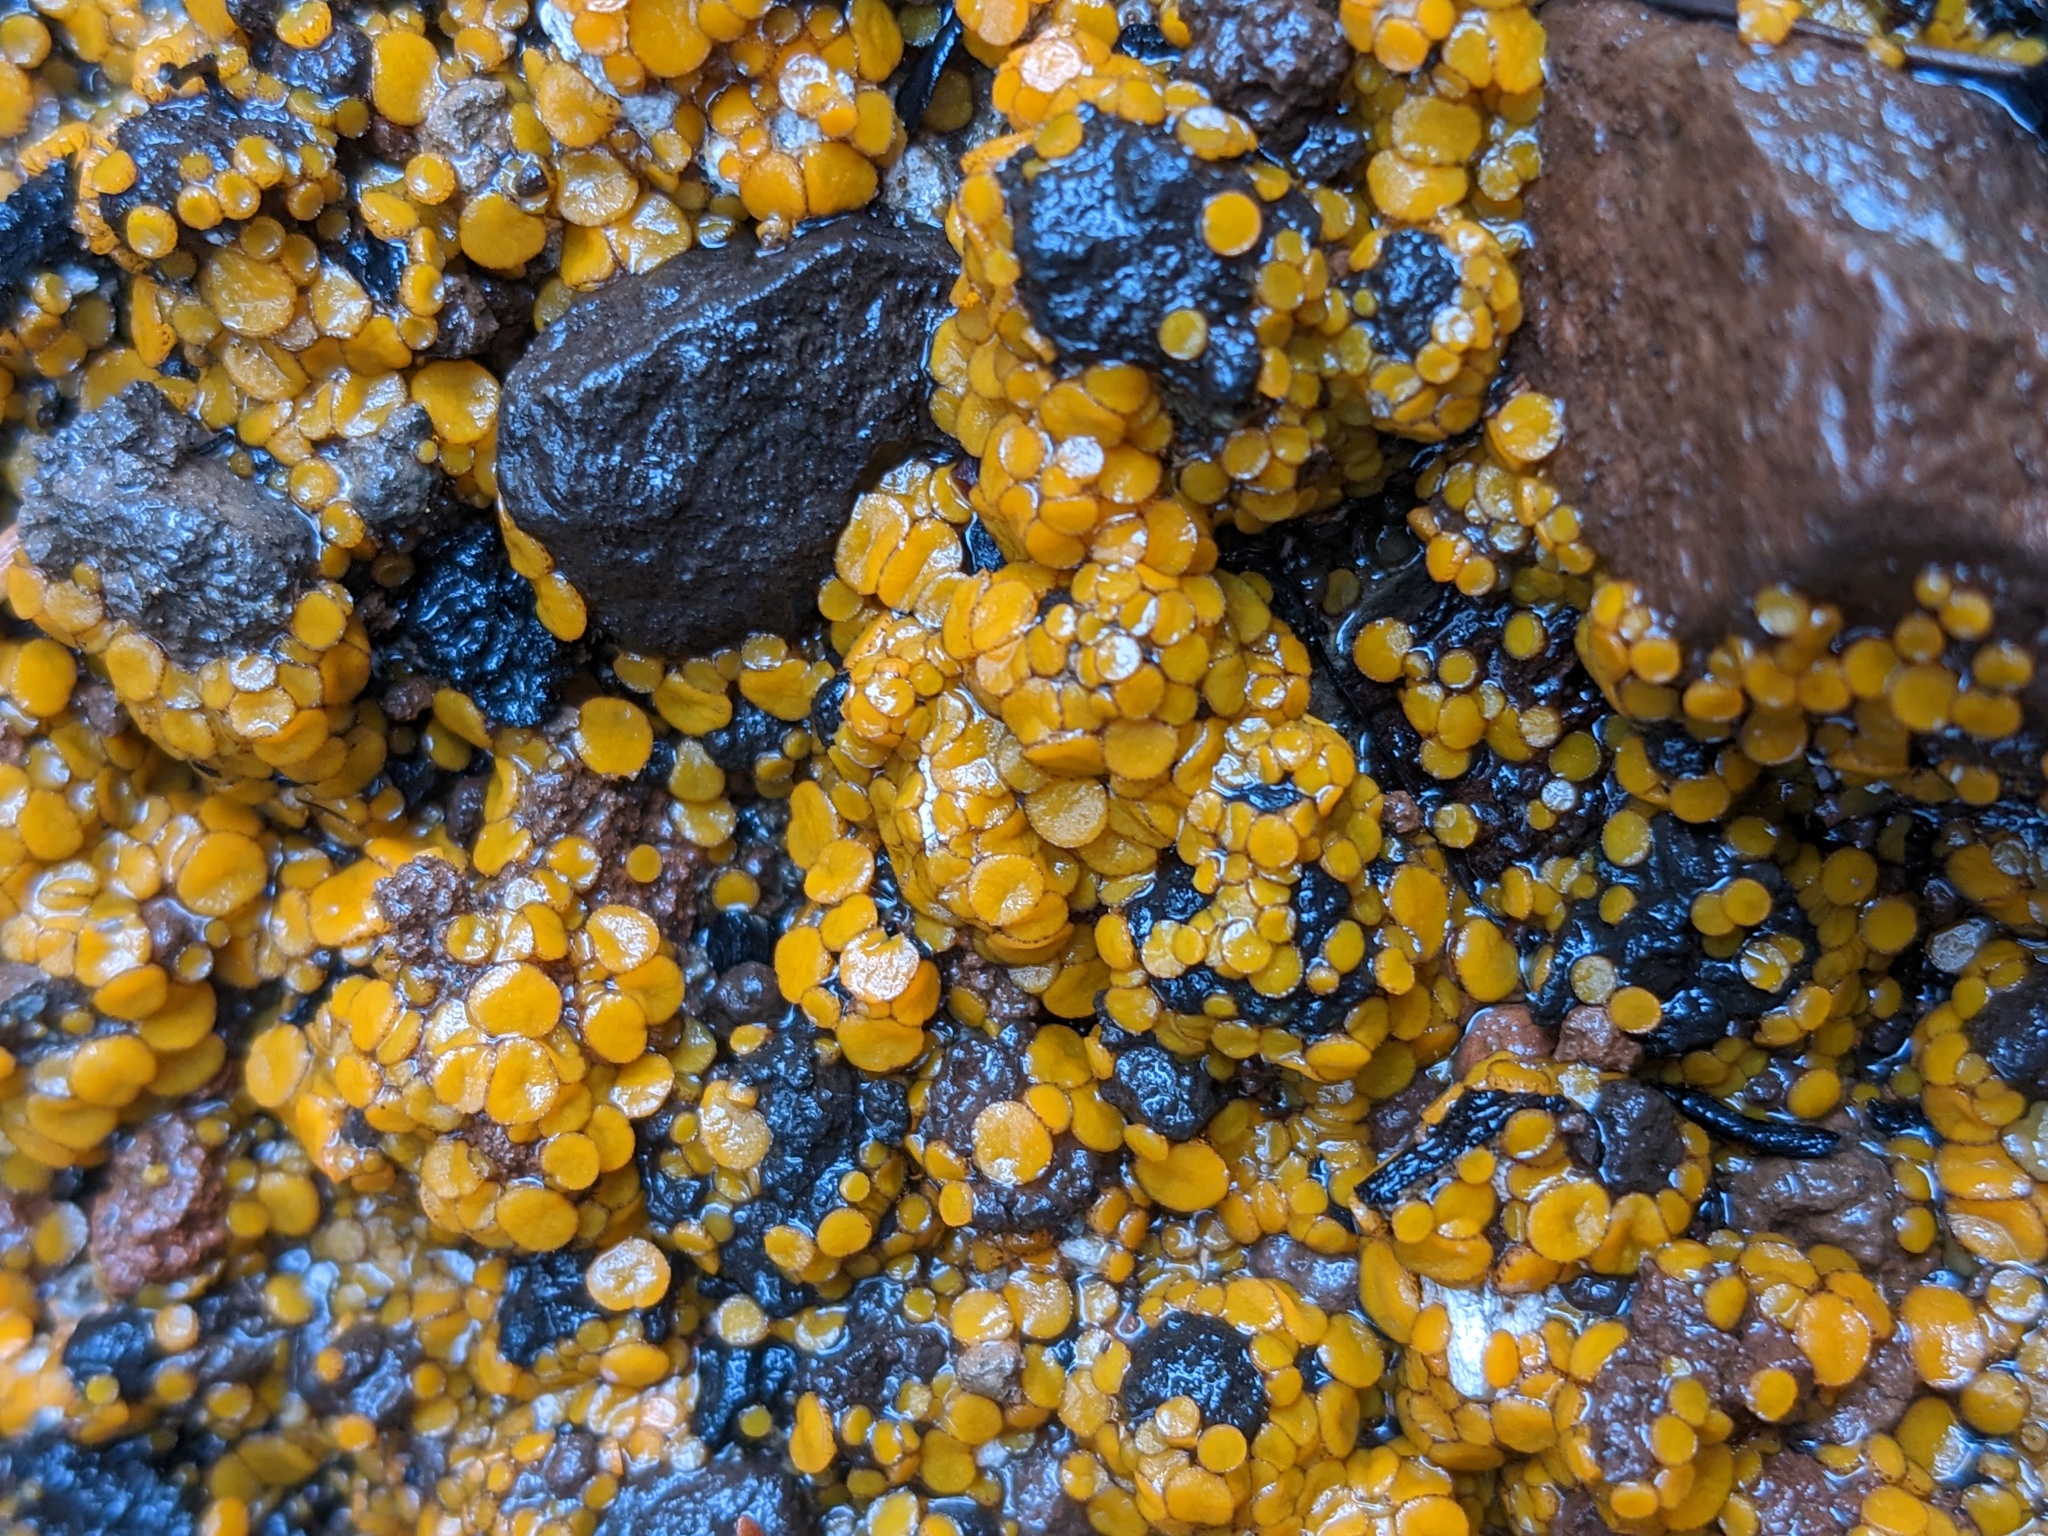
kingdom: Fungi
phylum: Ascomycota
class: Pezizomycetes
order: Pezizales
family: Pyronemataceae
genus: Anthracobia
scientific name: Anthracobia melaloma
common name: Charcoal eyelash
